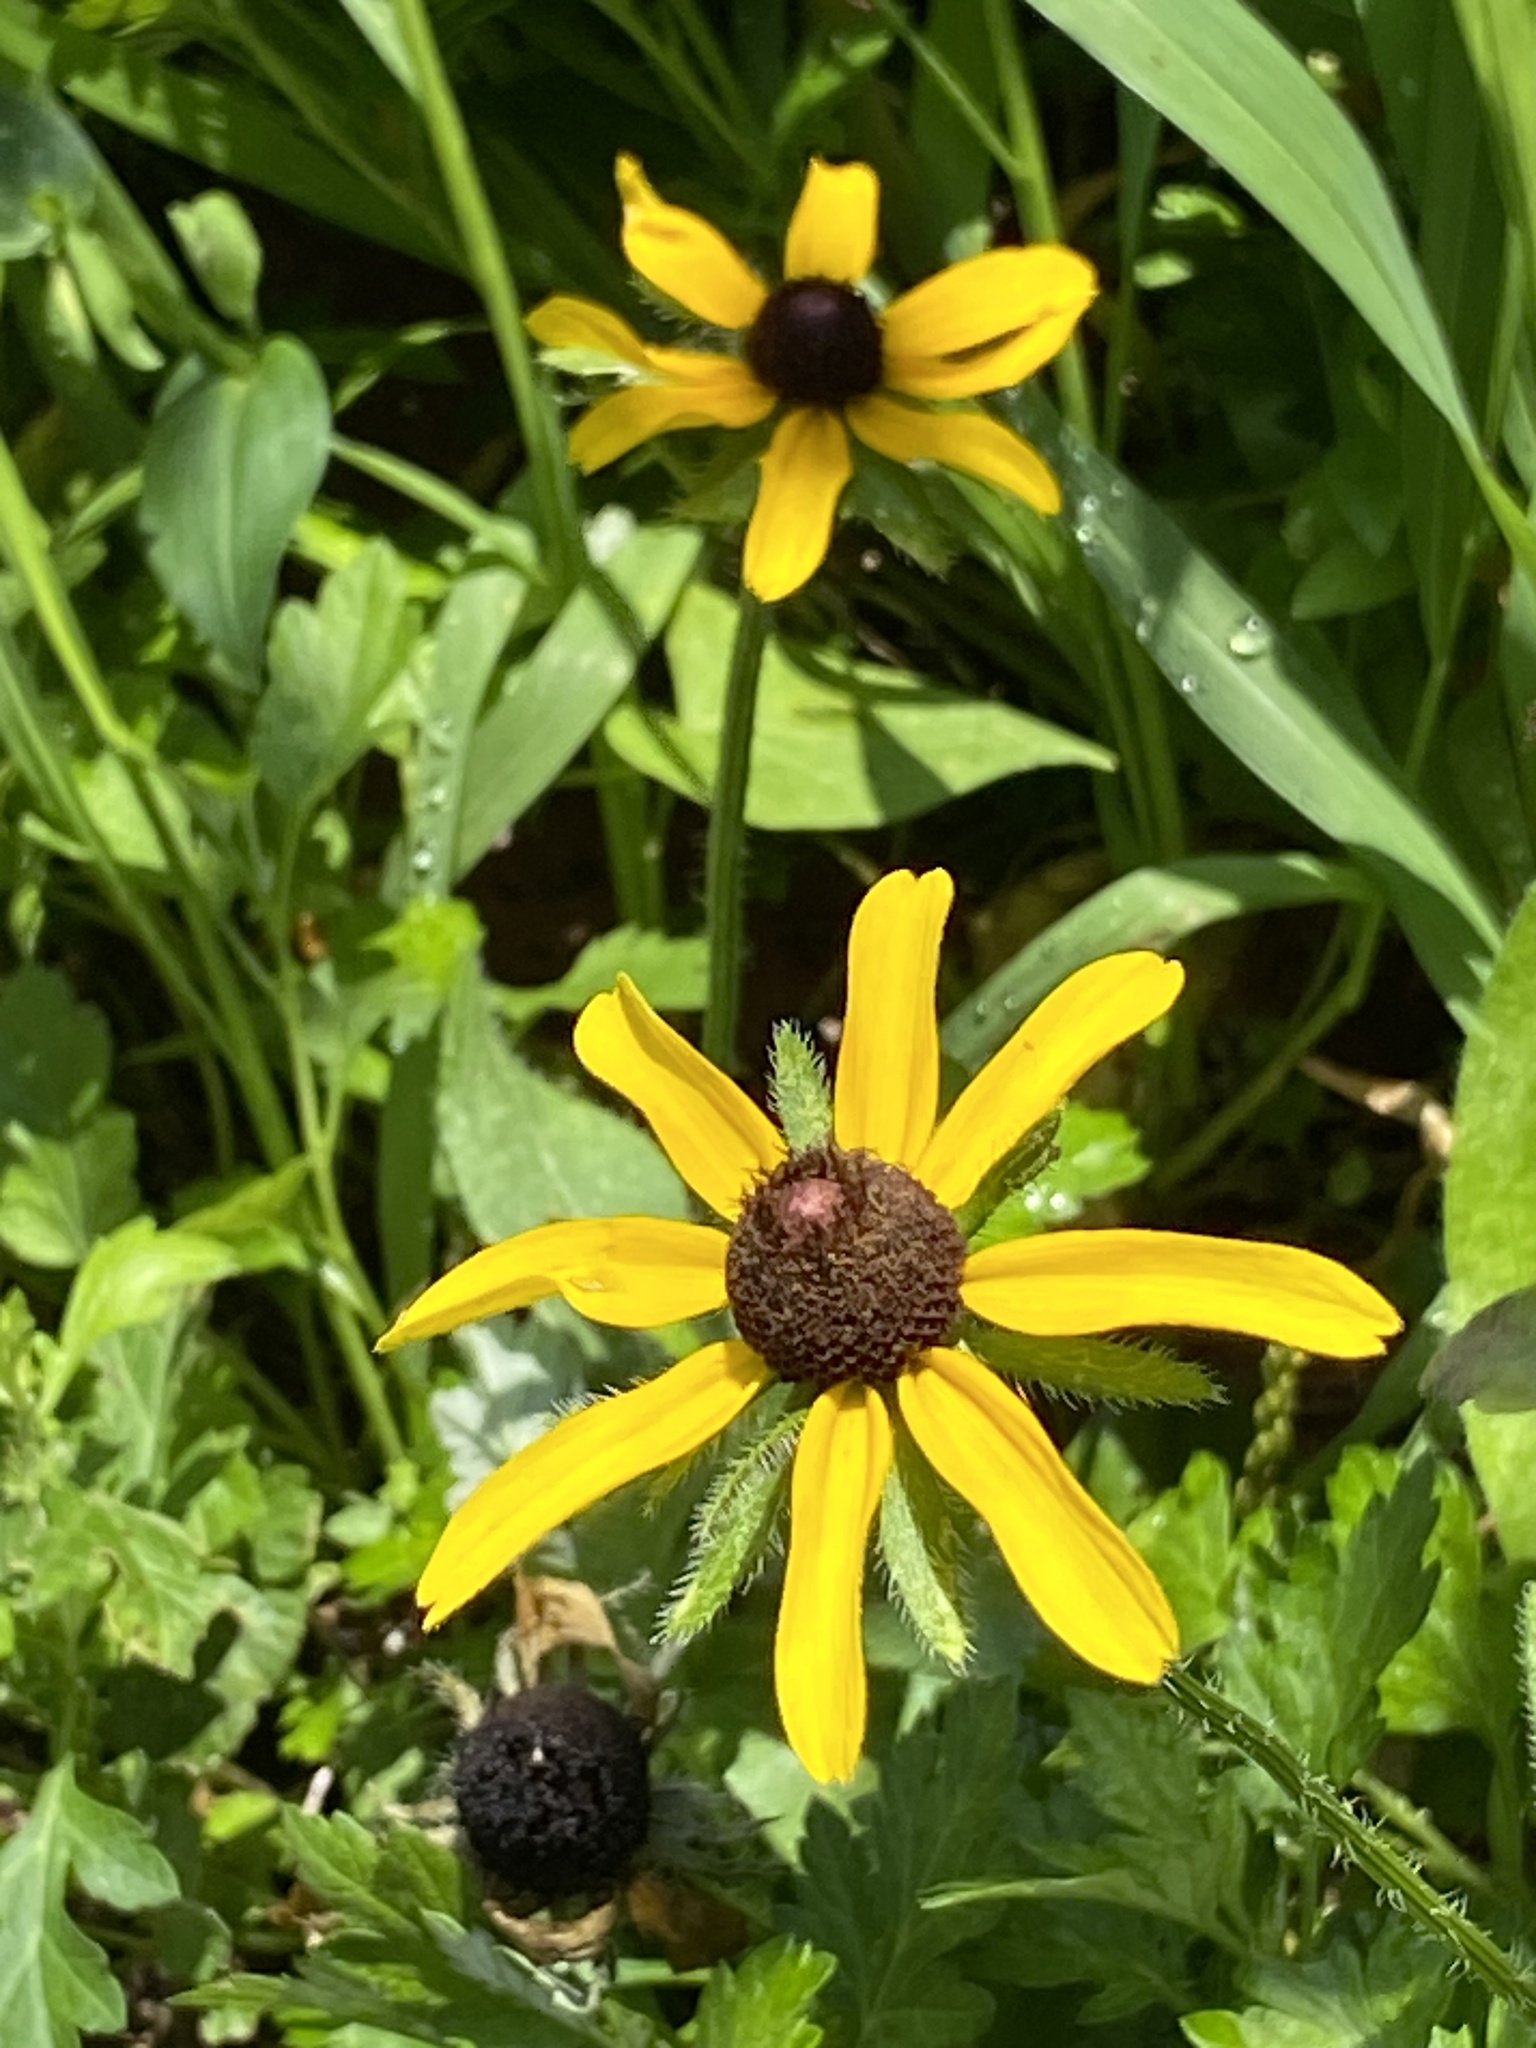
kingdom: Plantae
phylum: Tracheophyta
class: Magnoliopsida
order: Asterales
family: Asteraceae
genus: Rudbeckia
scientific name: Rudbeckia hirta
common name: Black-eyed-susan
